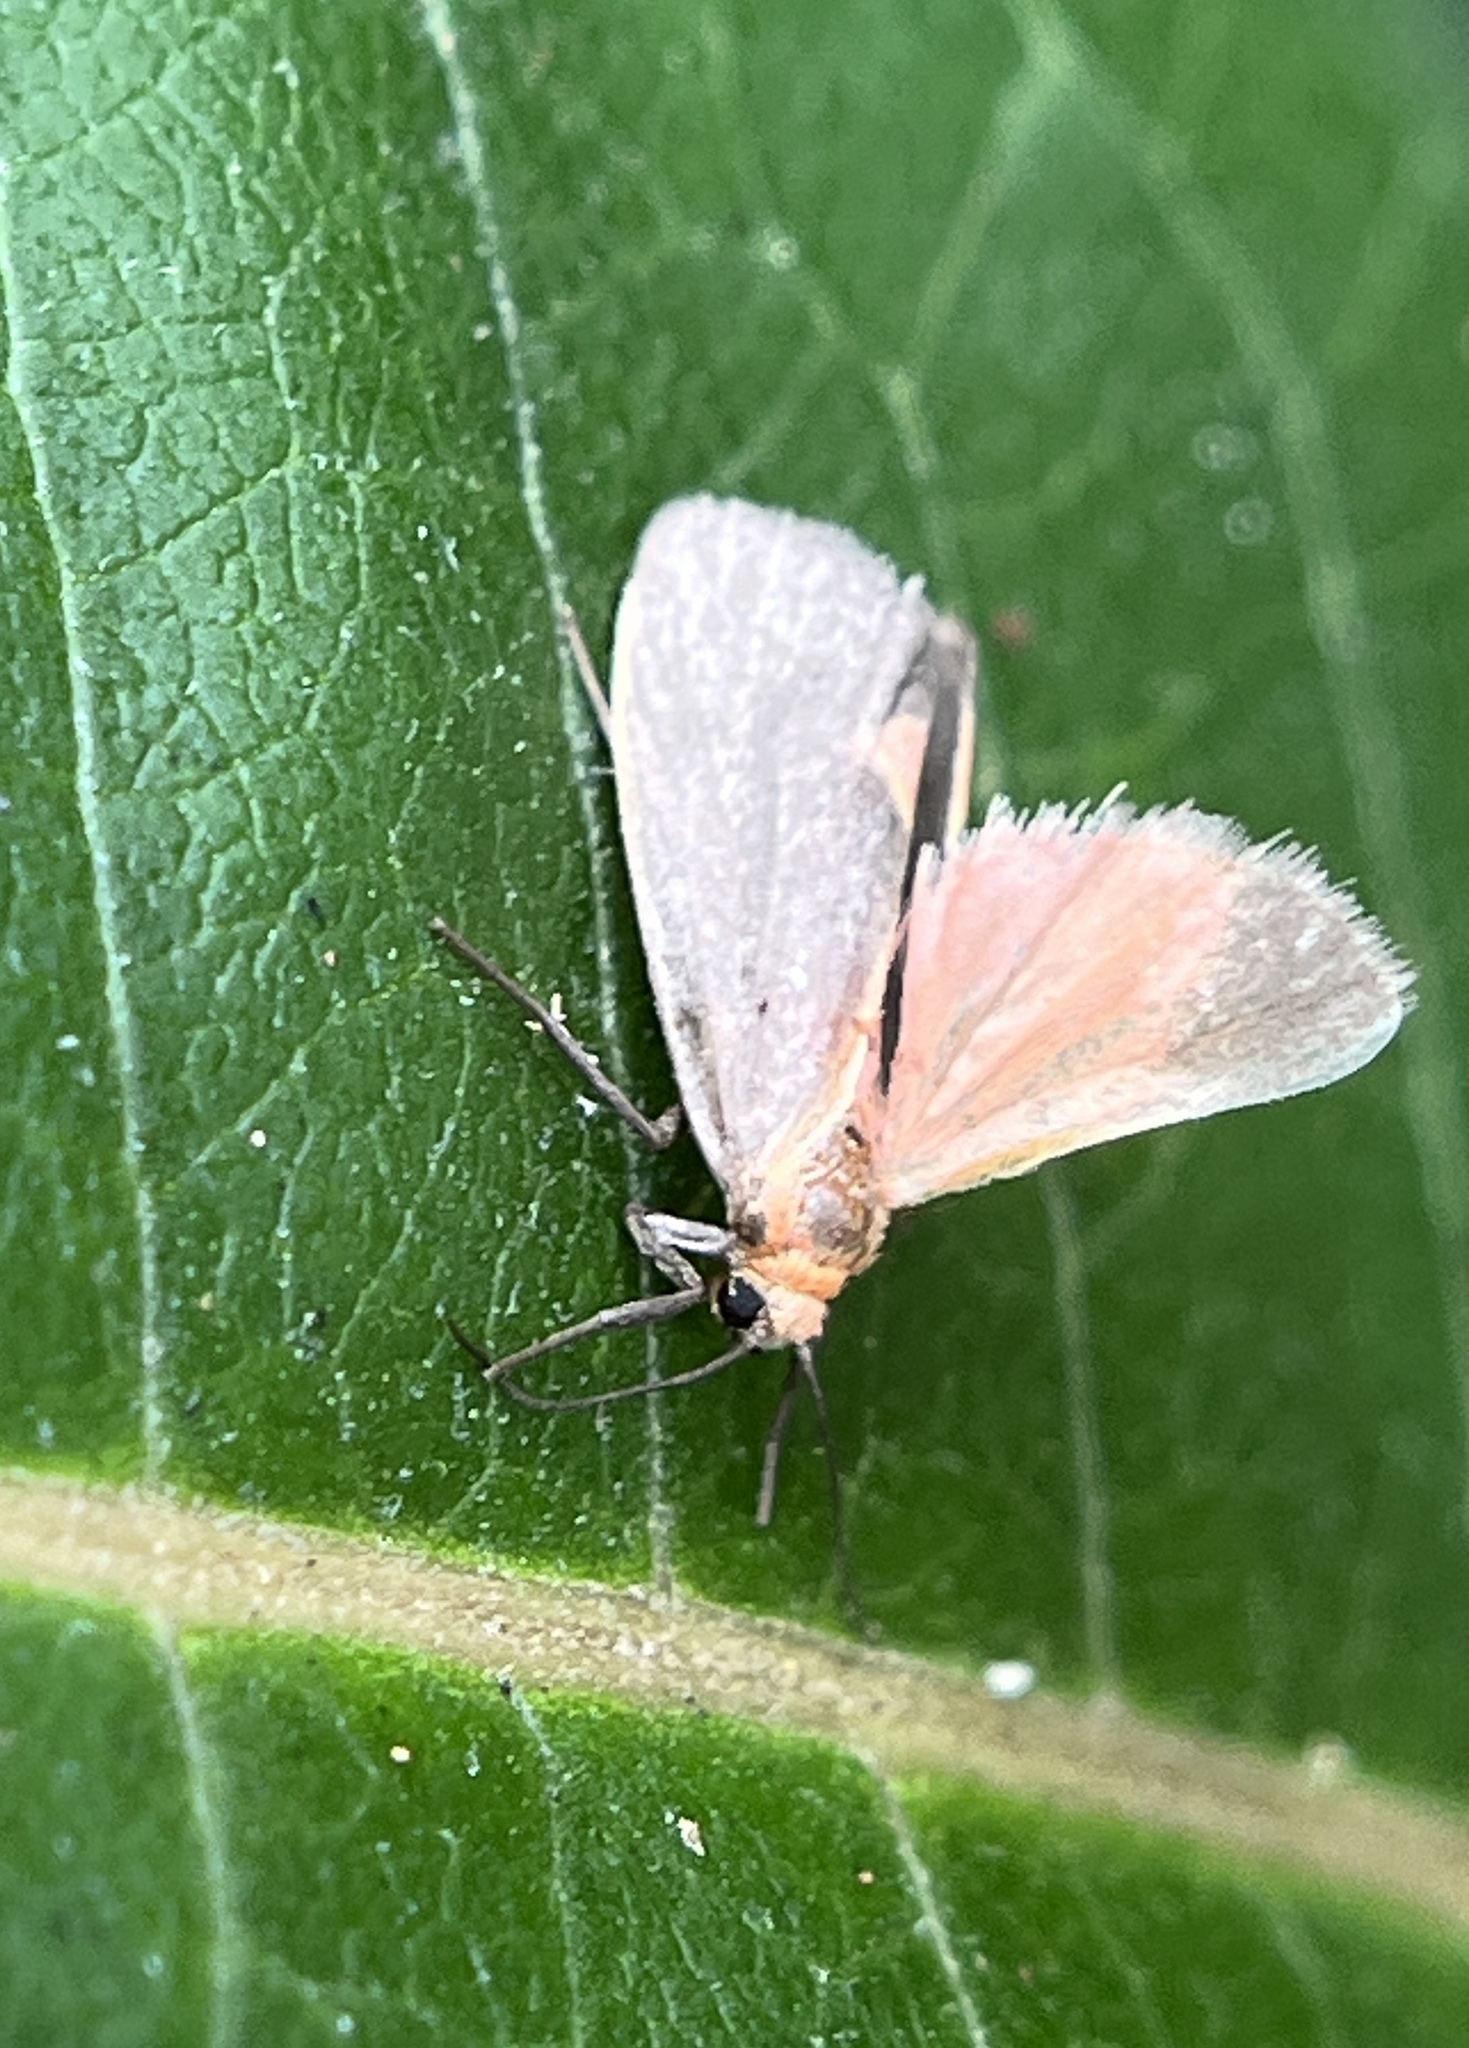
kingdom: Animalia
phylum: Arthropoda
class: Insecta
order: Lepidoptera
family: Erebidae
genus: Cisthene
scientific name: Cisthene plumbea
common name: Lead colored lichen moth
